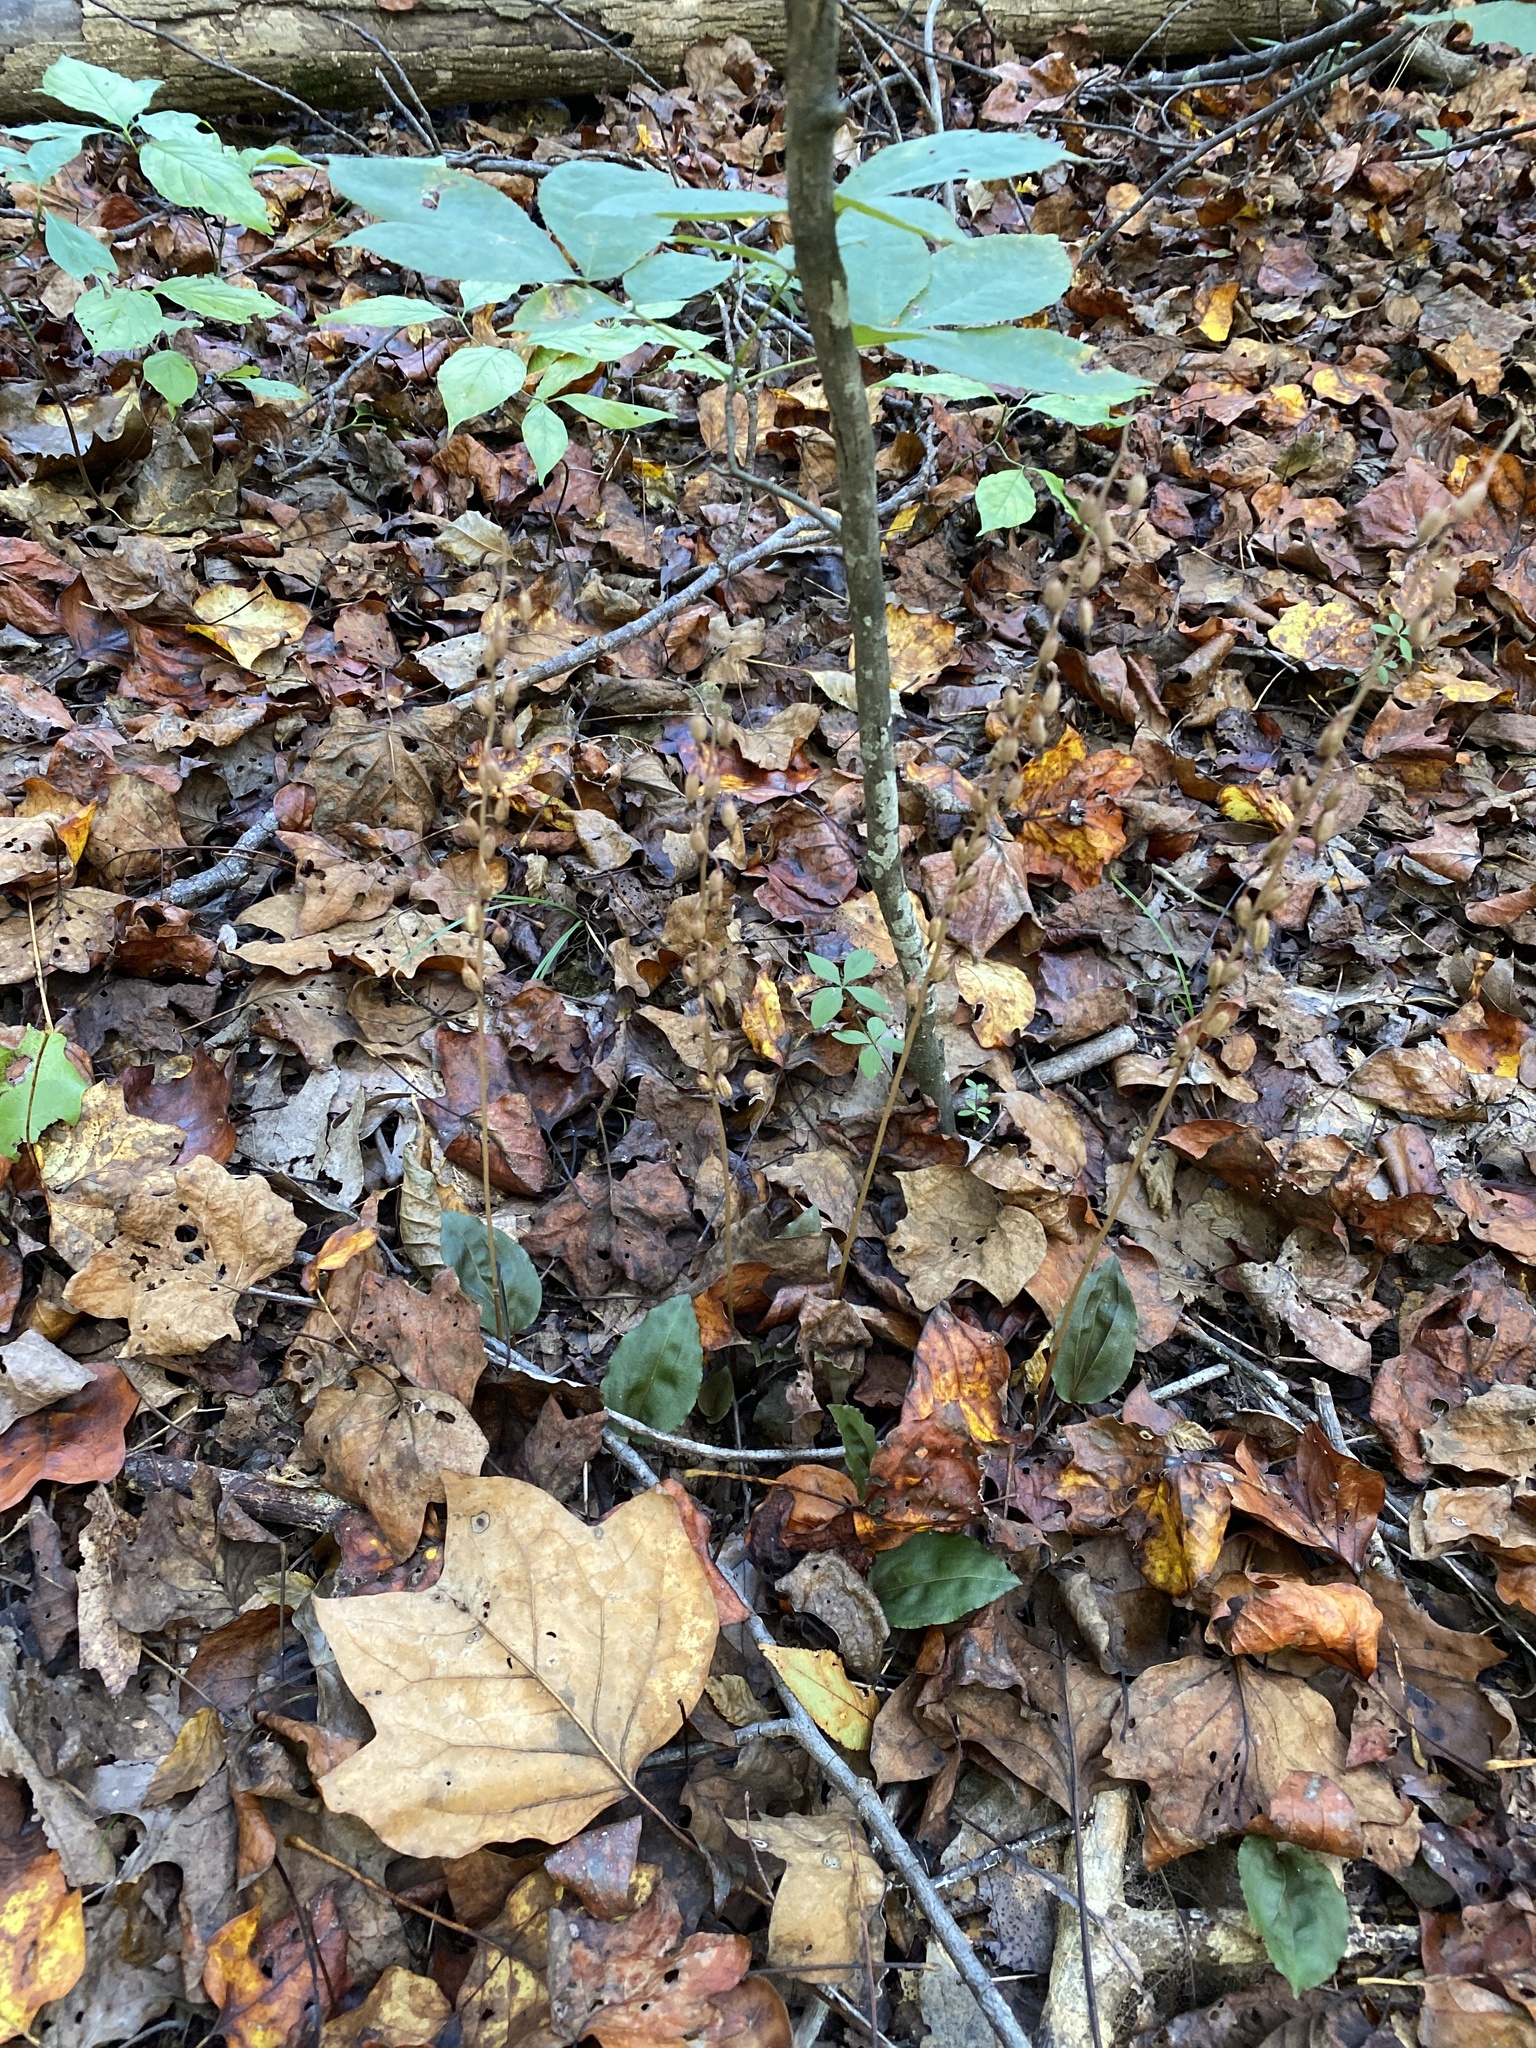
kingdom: Plantae
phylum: Tracheophyta
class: Liliopsida
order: Asparagales
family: Orchidaceae
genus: Tipularia
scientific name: Tipularia discolor
